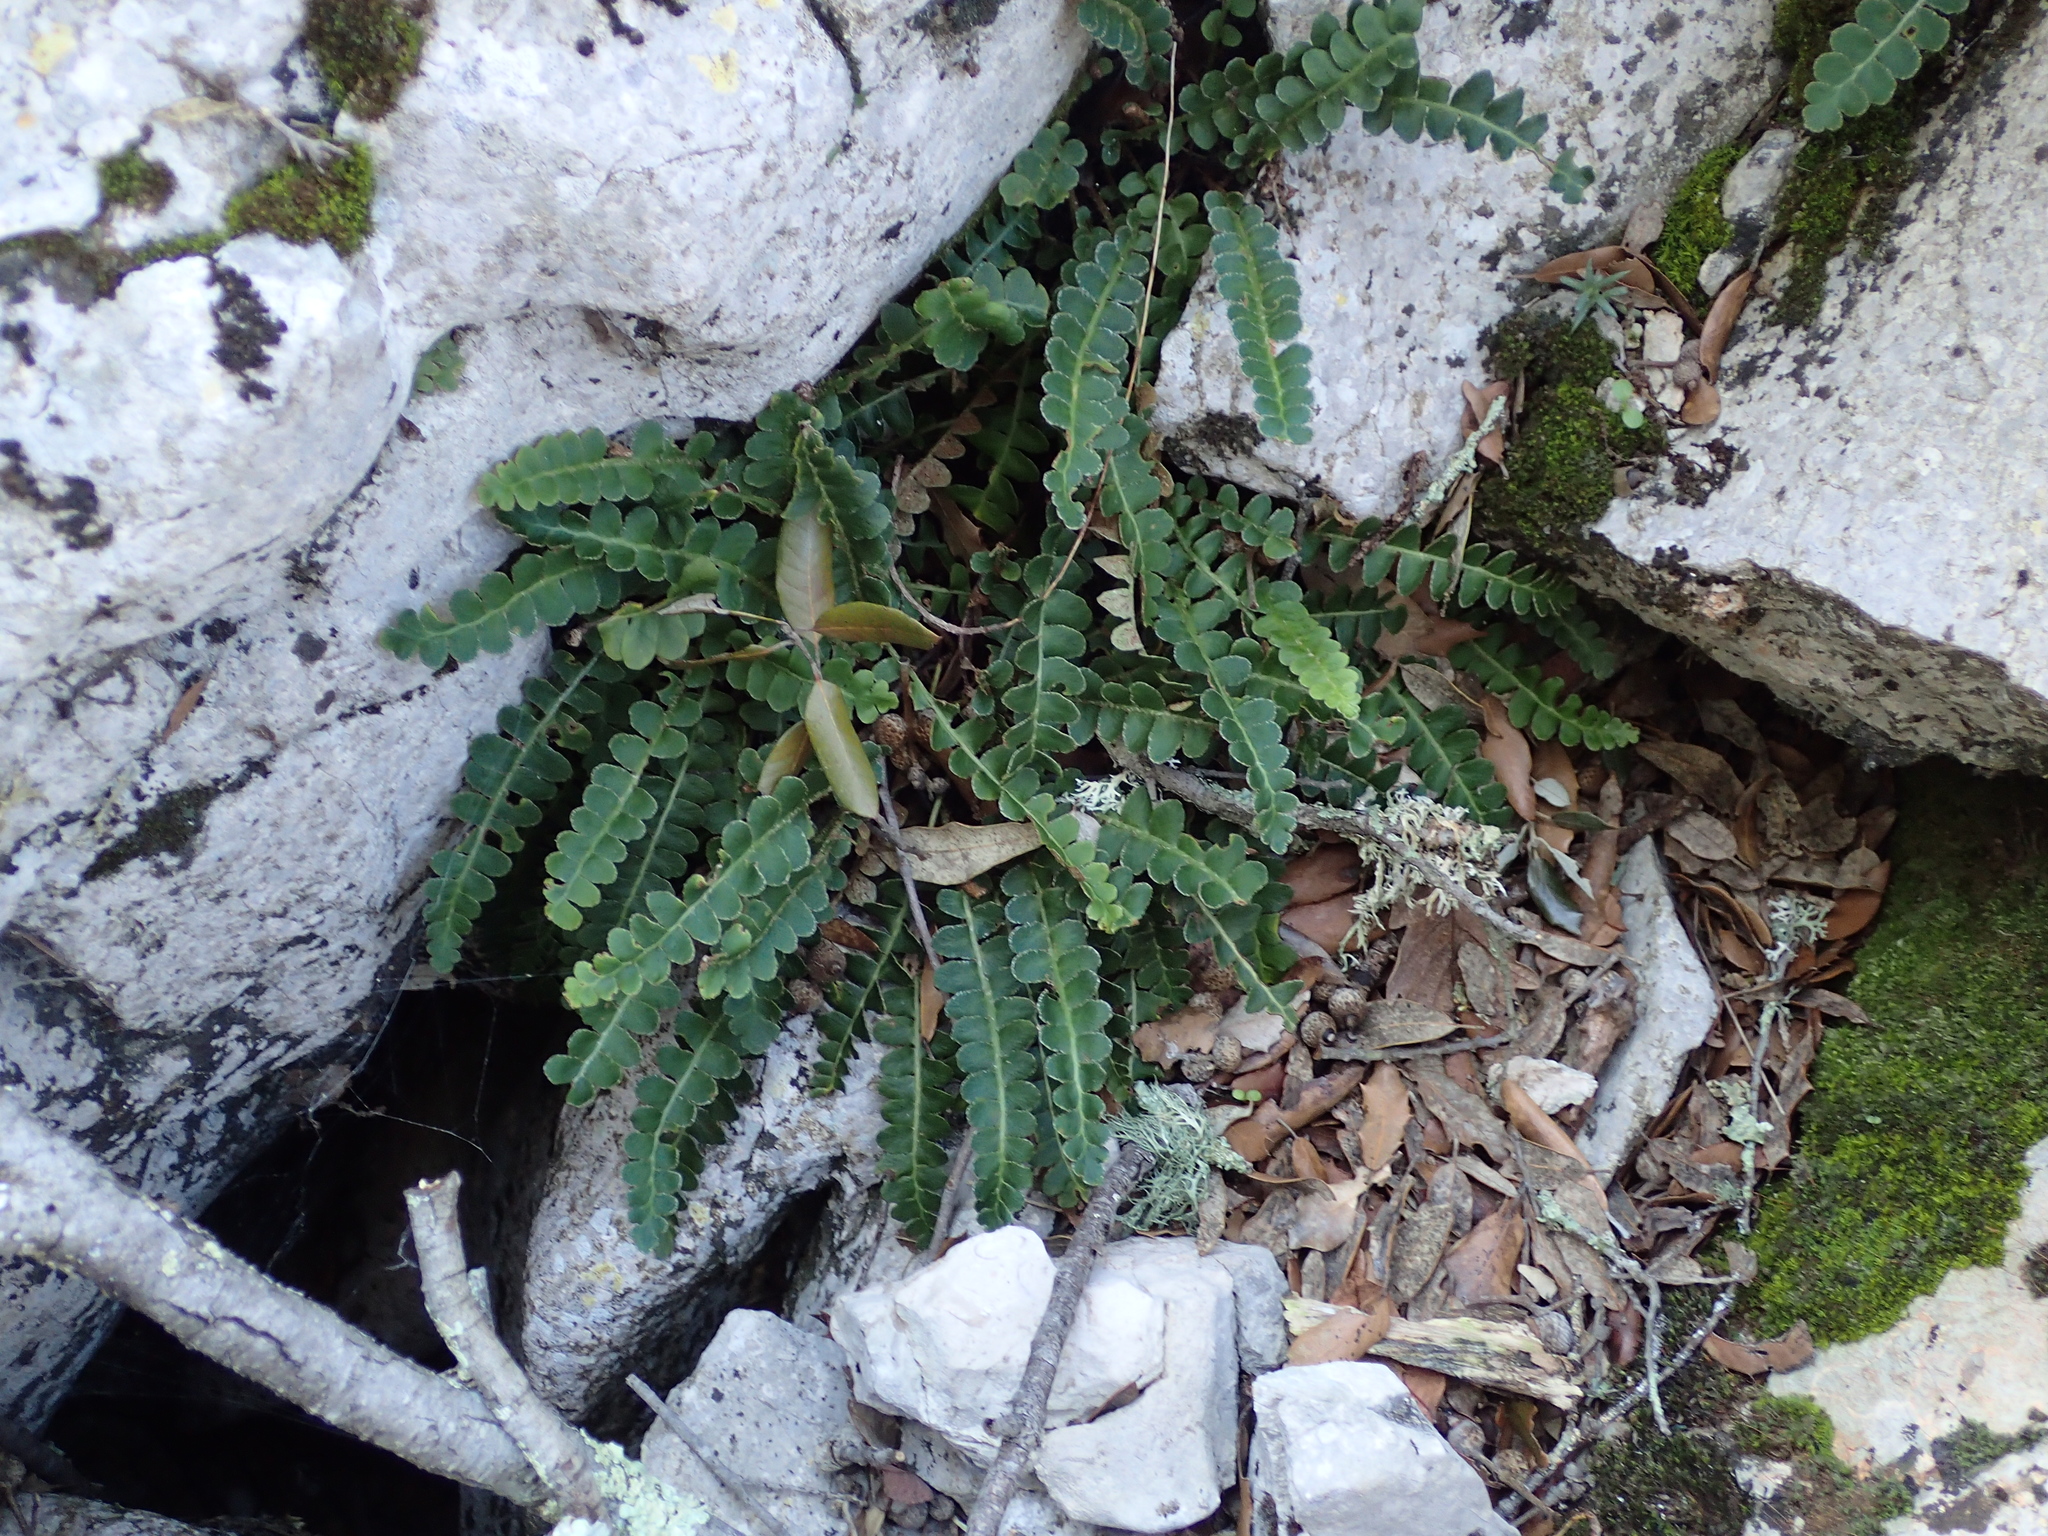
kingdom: Plantae
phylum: Tracheophyta
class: Polypodiopsida
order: Polypodiales
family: Aspleniaceae
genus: Asplenium
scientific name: Asplenium ceterach
